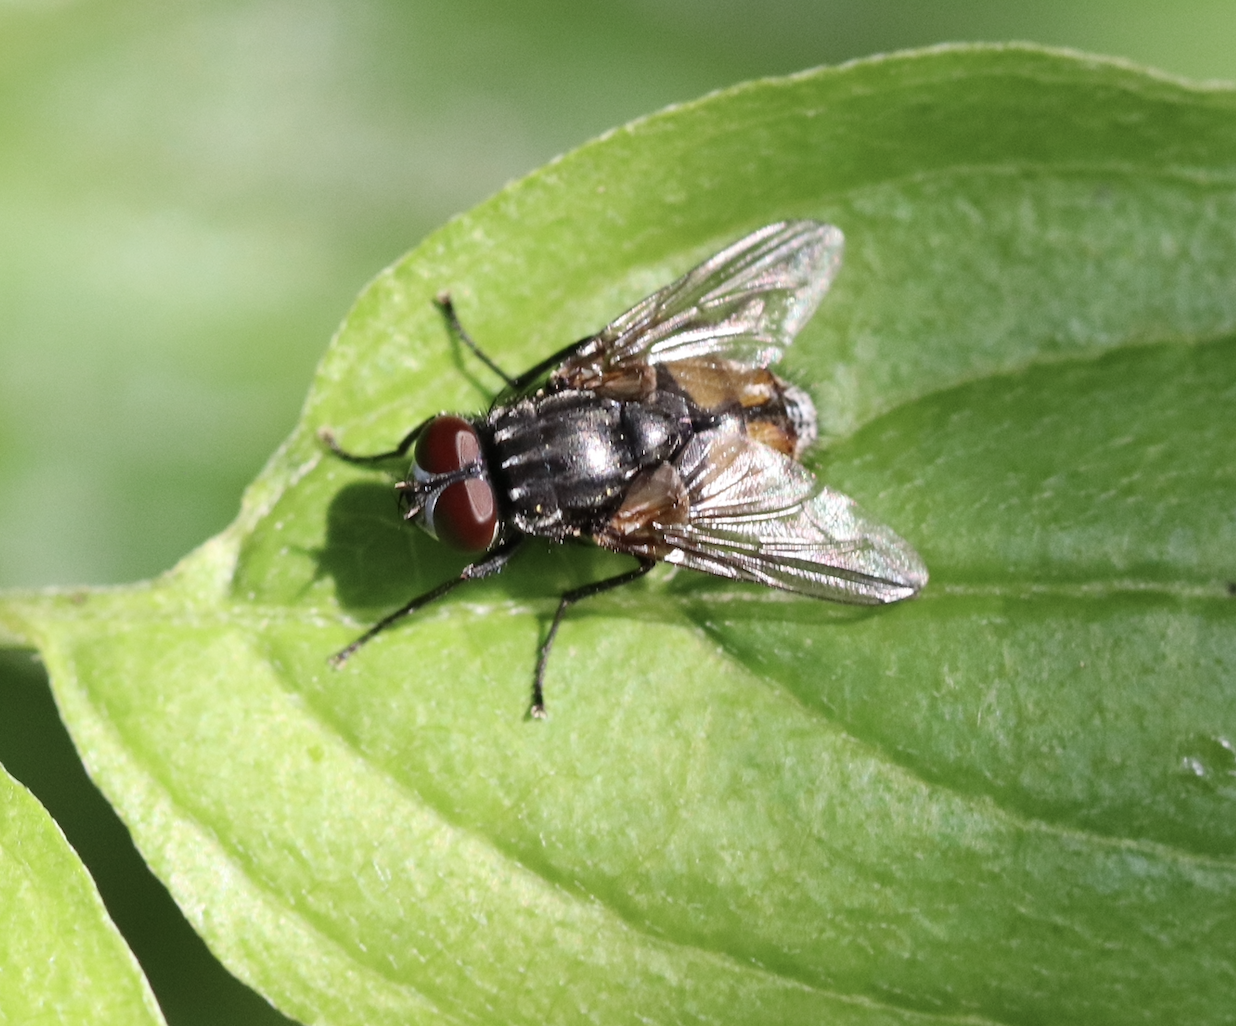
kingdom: Animalia
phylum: Arthropoda
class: Insecta
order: Diptera
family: Muscidae
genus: Musca
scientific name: Musca autumnalis
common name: Face fly
